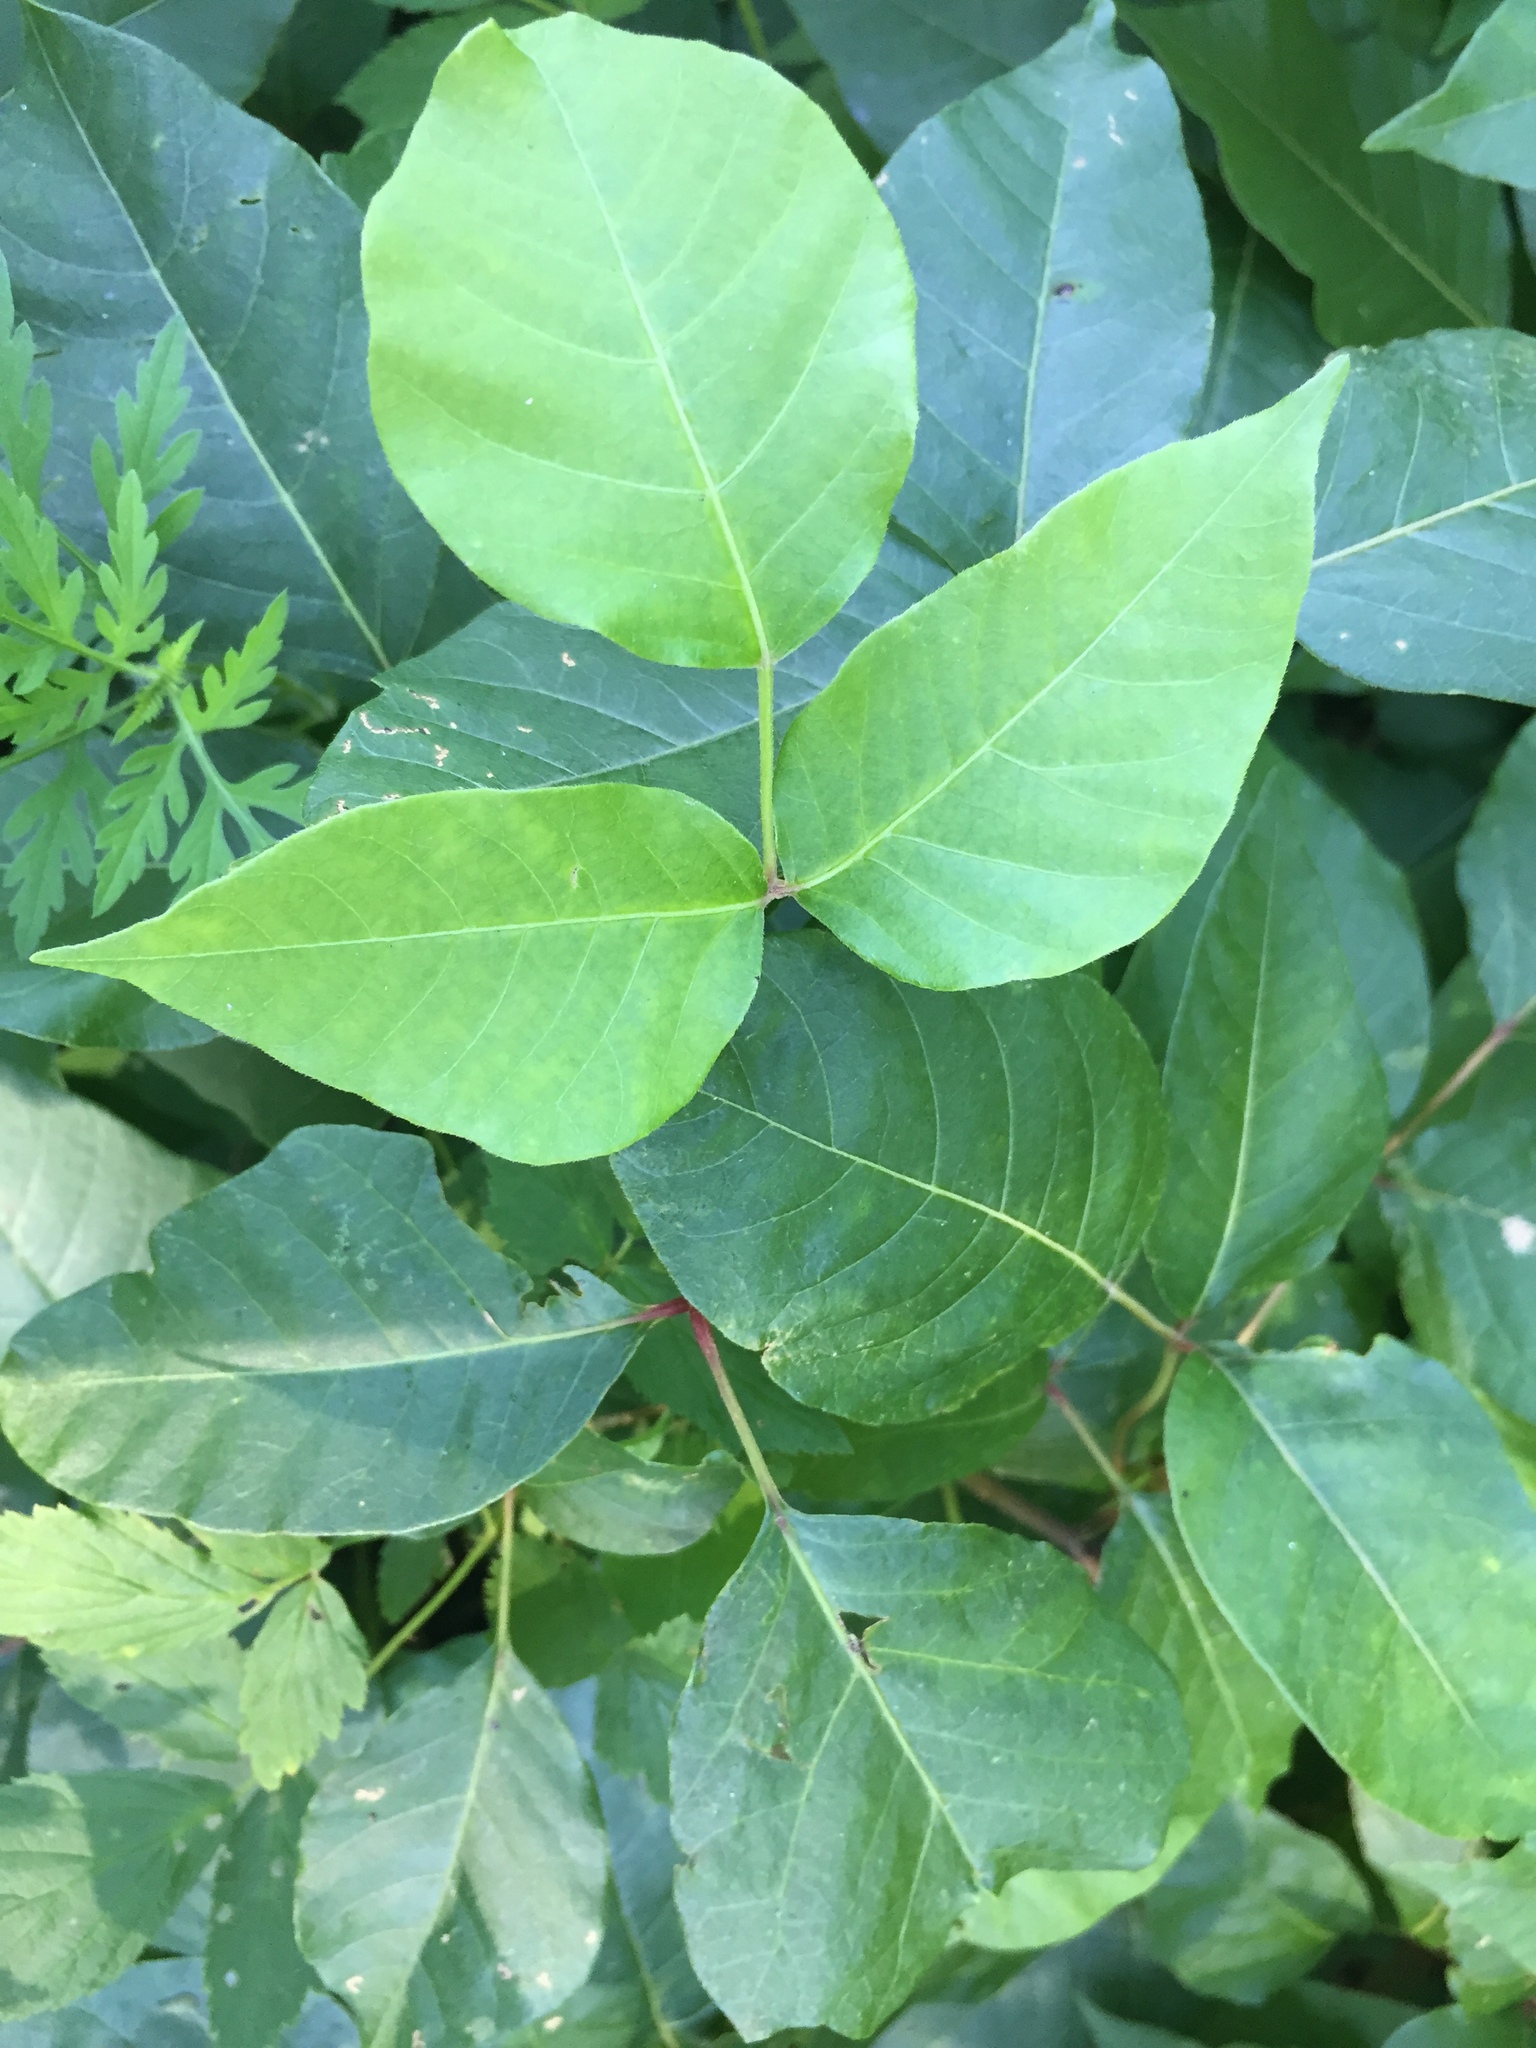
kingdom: Plantae
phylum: Tracheophyta
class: Magnoliopsida
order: Sapindales
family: Anacardiaceae
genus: Toxicodendron
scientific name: Toxicodendron radicans
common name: Poison ivy
